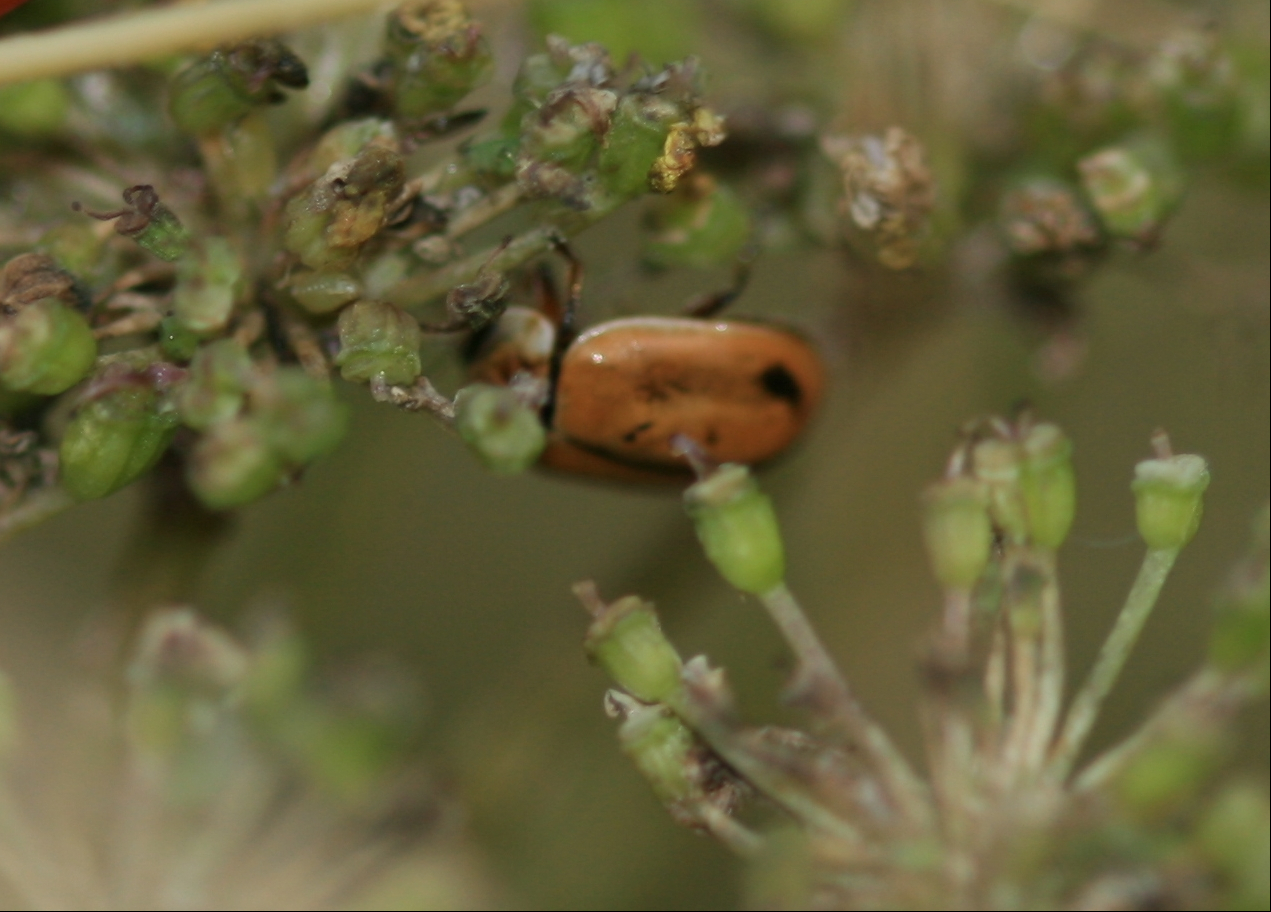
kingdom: Animalia
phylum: Arthropoda
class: Insecta
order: Coleoptera
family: Coccinellidae
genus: Aphidecta
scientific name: Aphidecta obliterata
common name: Larch ladybird
